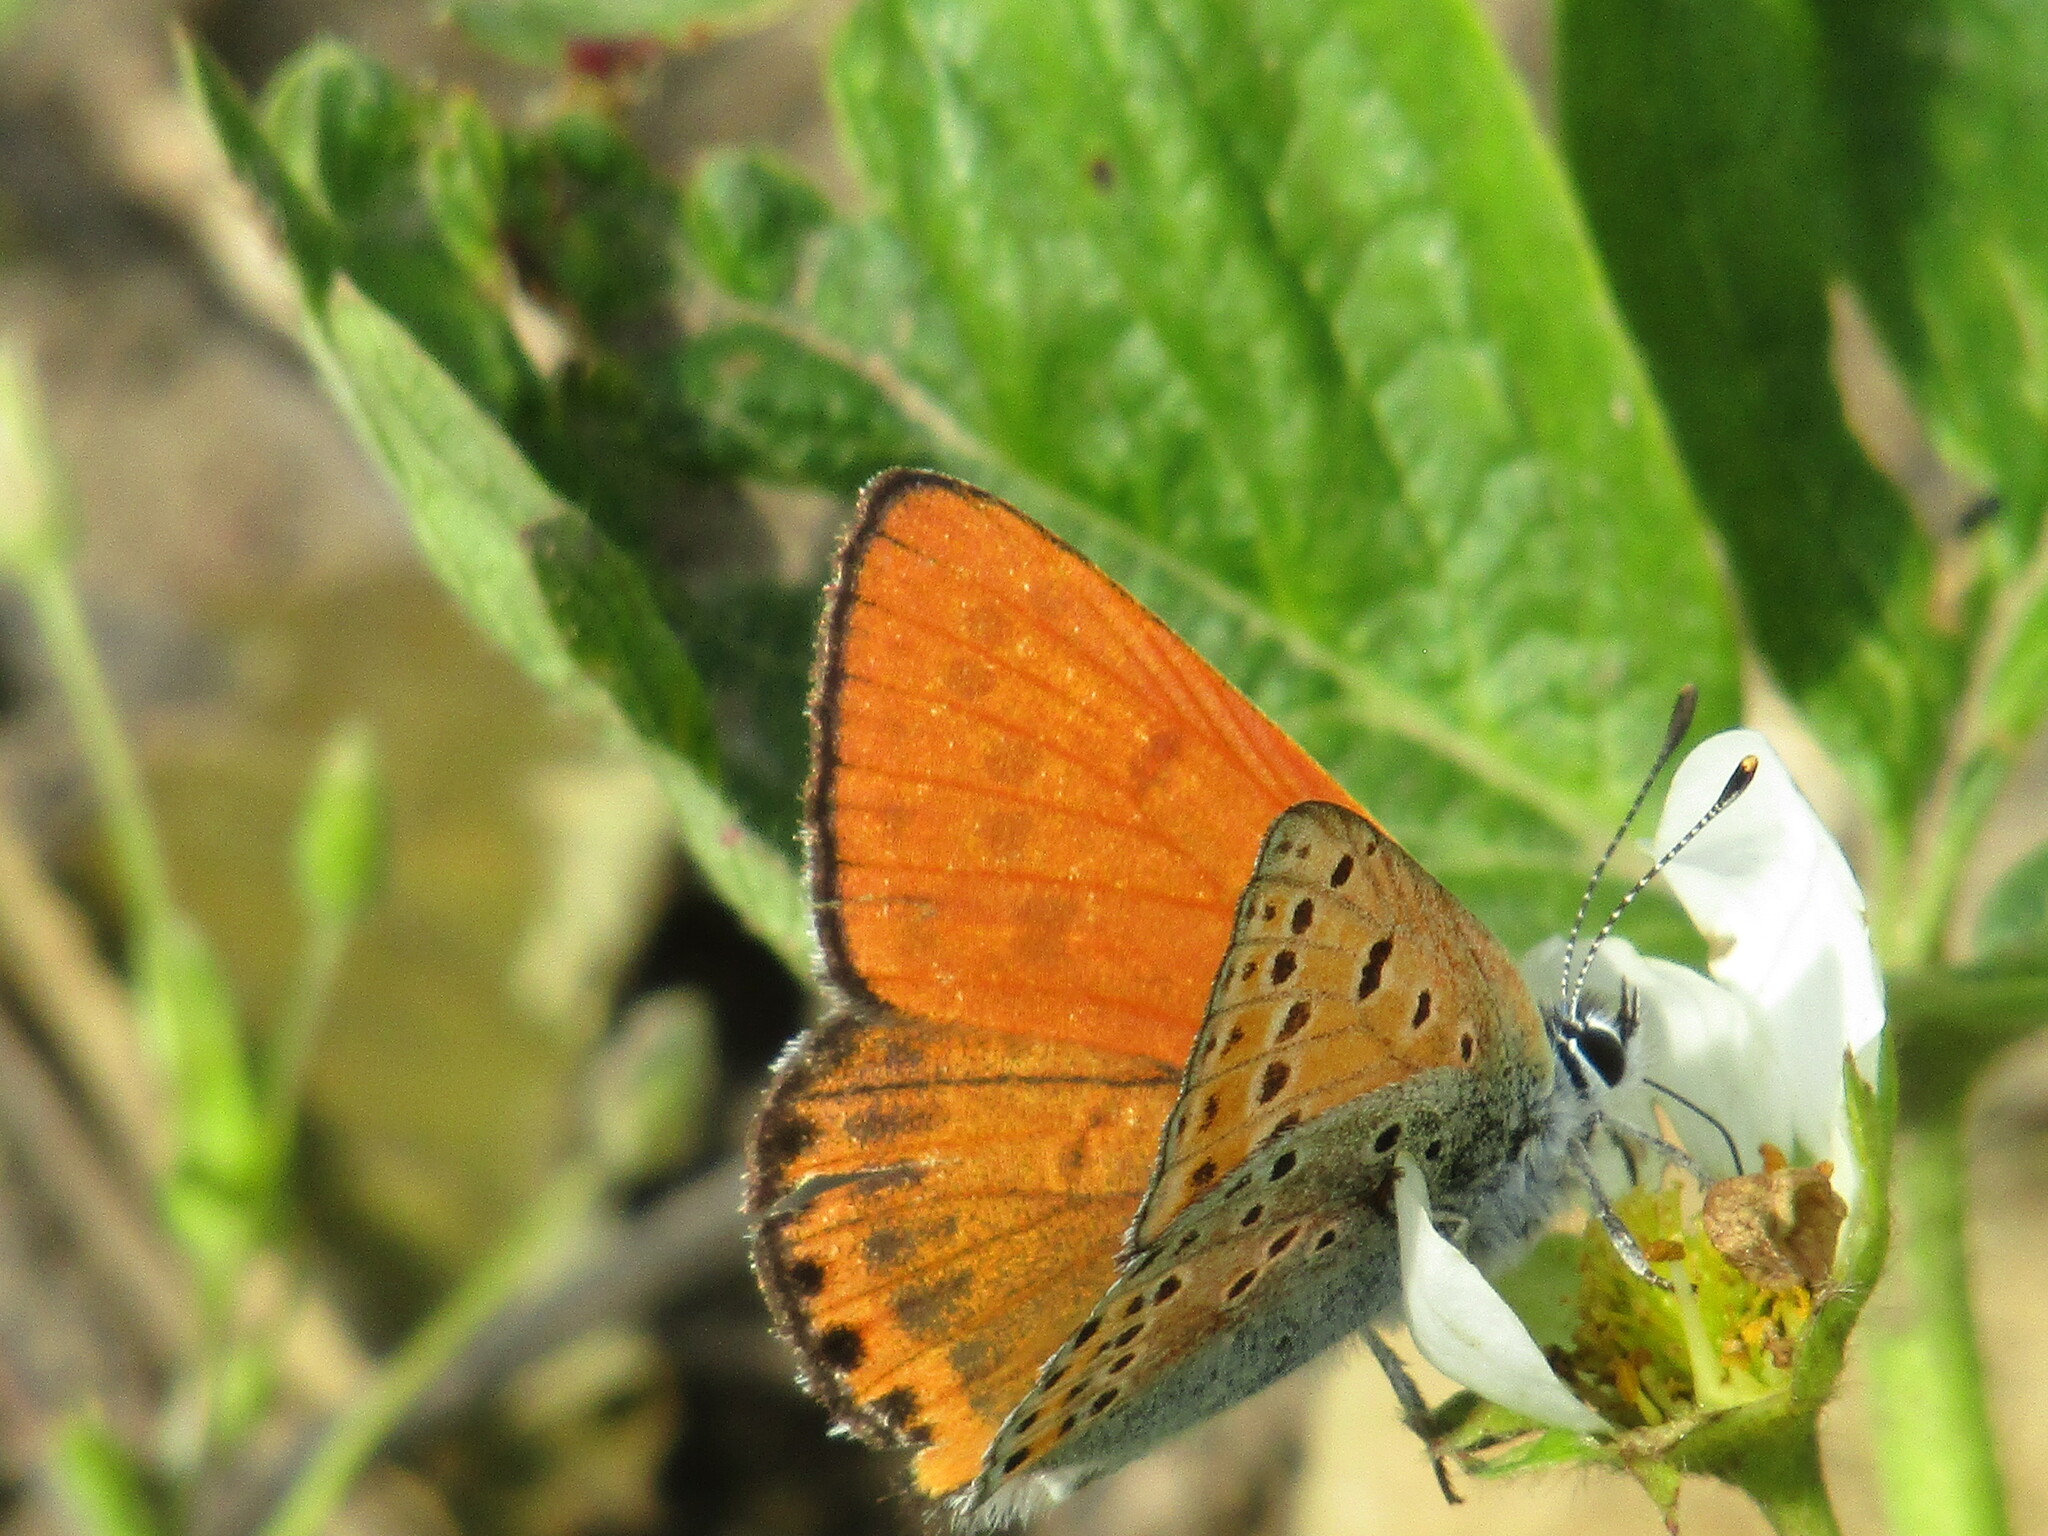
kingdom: Animalia
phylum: Arthropoda
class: Insecta
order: Lepidoptera
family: Lycaenidae
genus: Thersamonia
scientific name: Thersamonia thersamon
